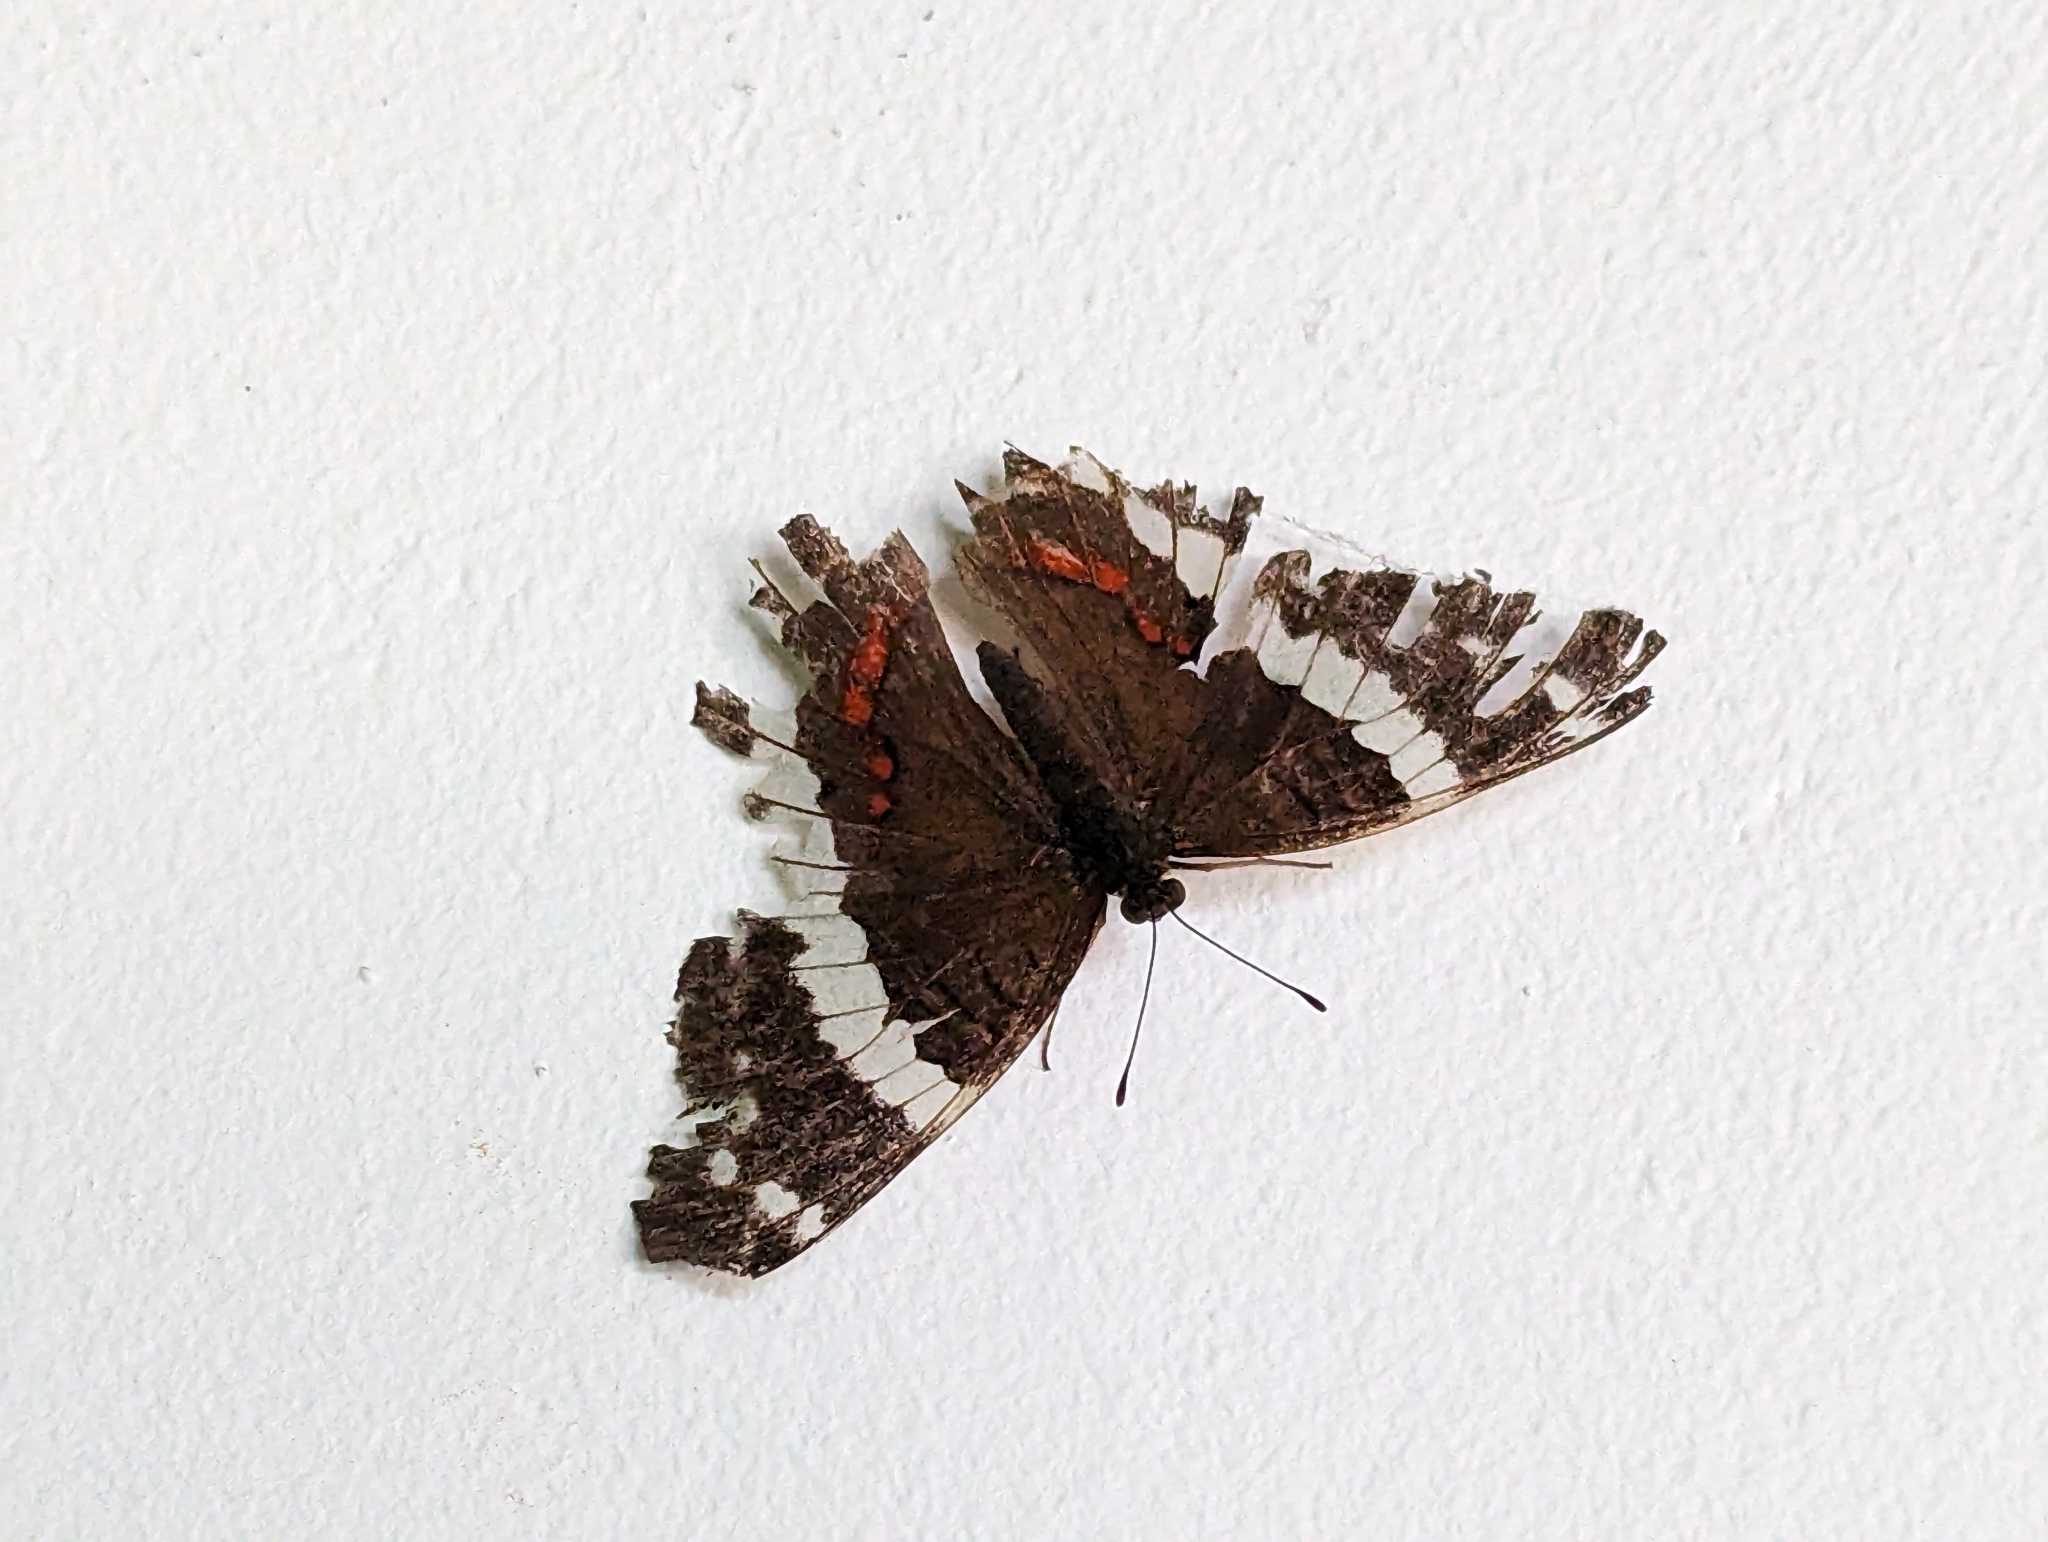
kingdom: Animalia
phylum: Arthropoda
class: Insecta
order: Lepidoptera
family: Nymphalidae
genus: Anartia
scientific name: Anartia fatima
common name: Banded peacock
